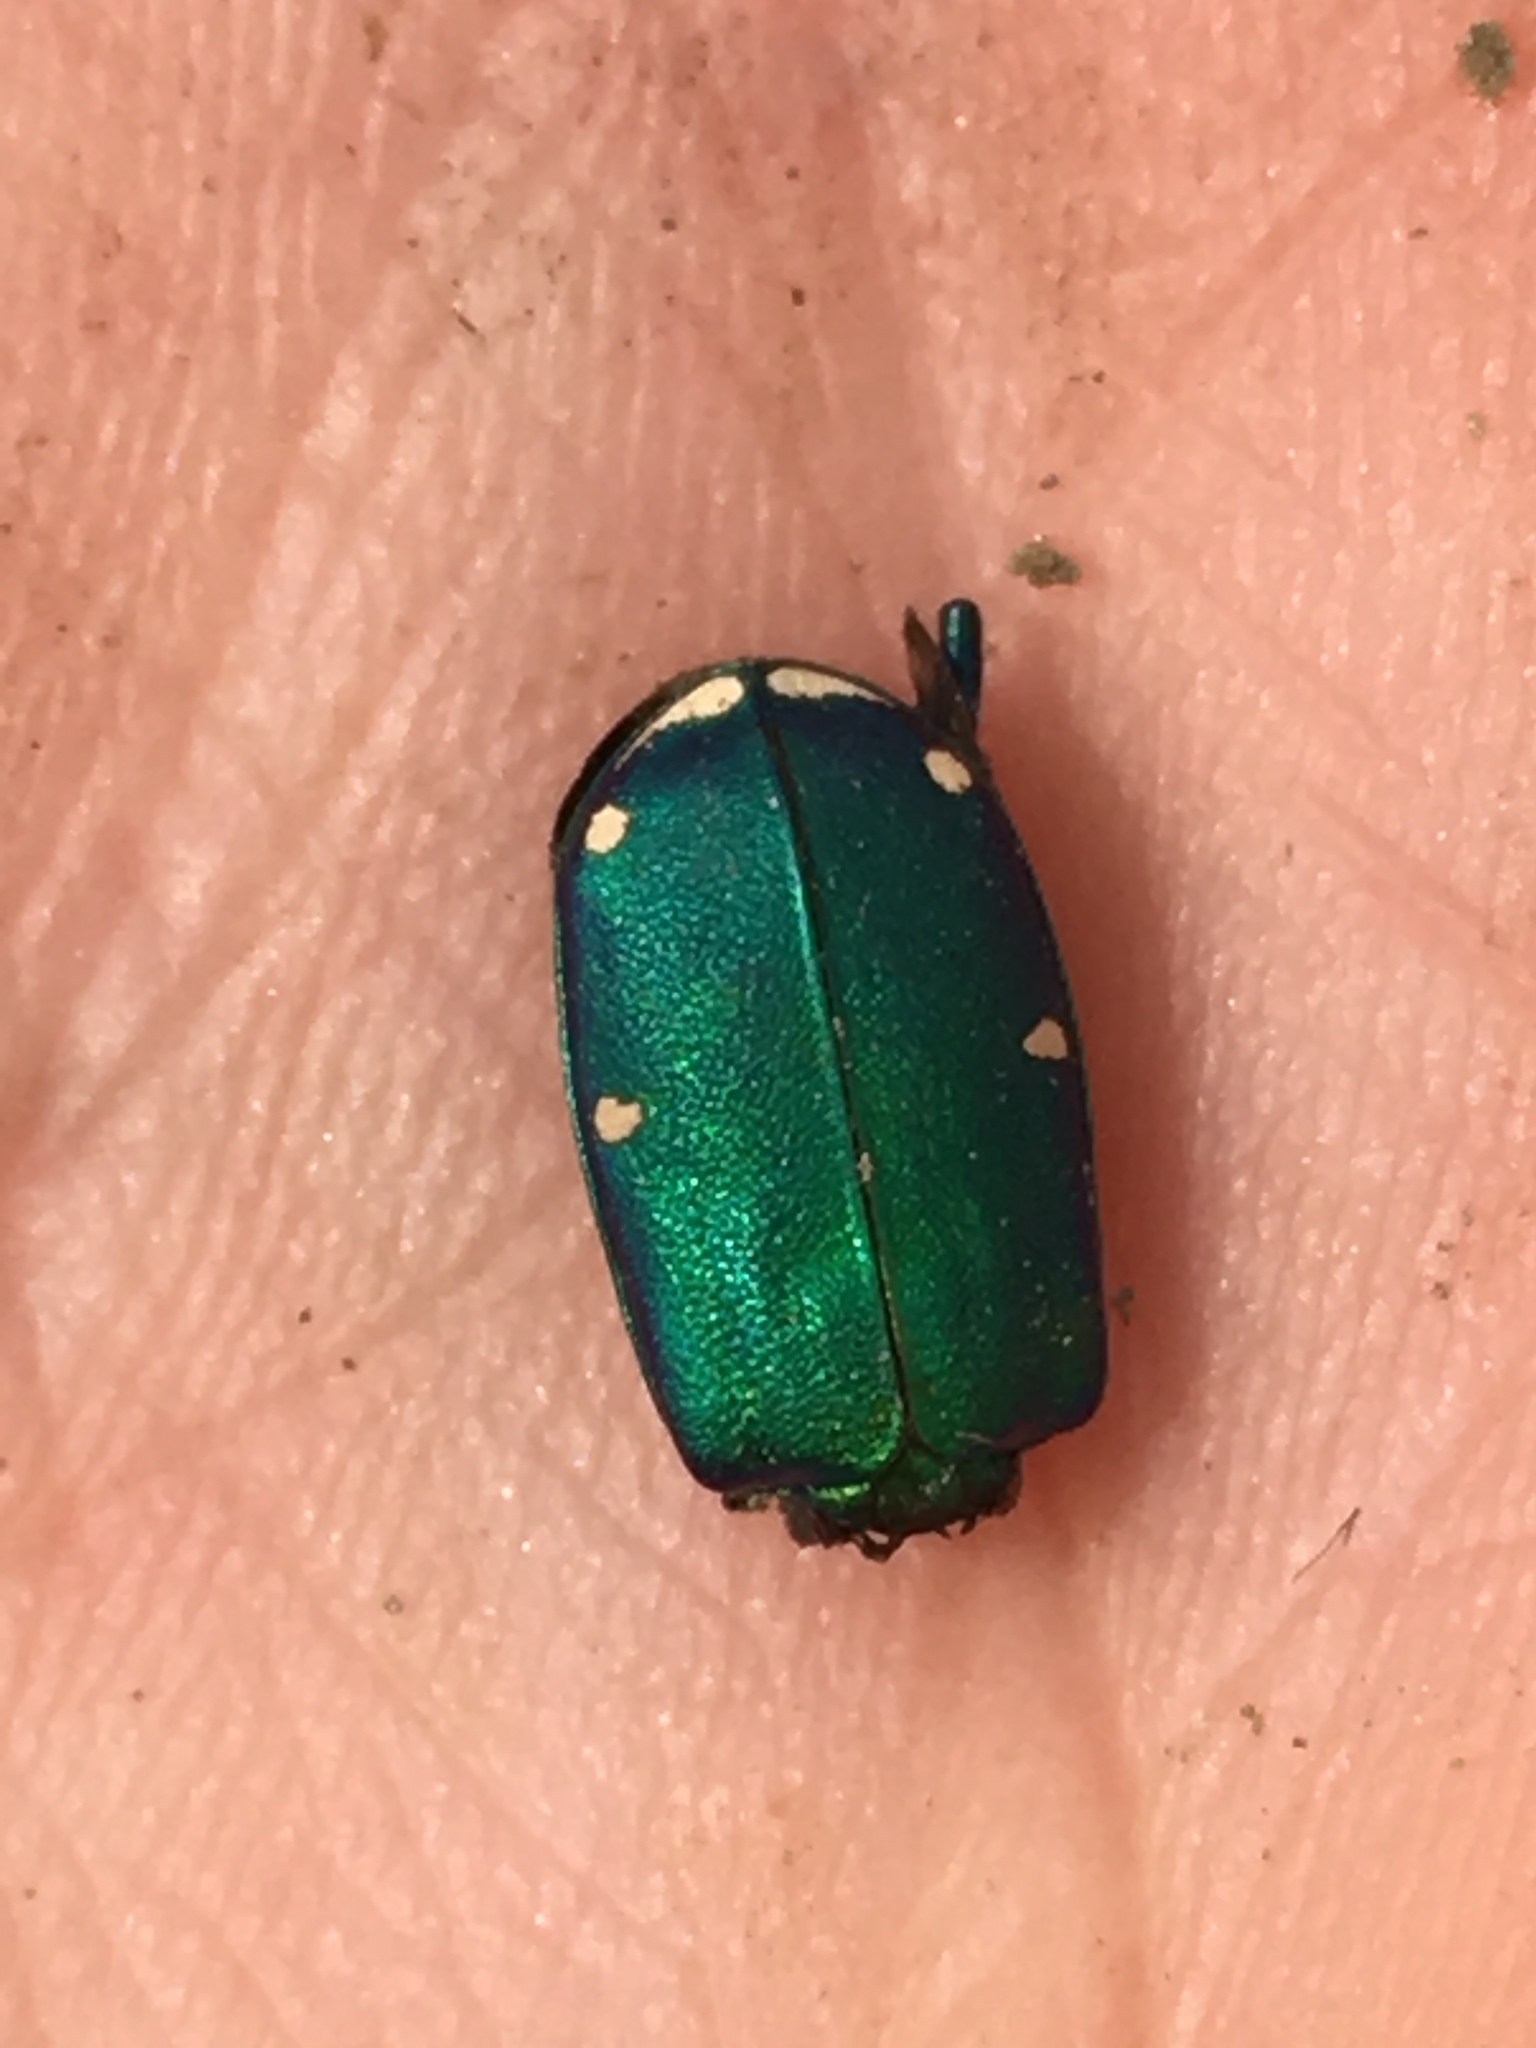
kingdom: Animalia
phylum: Arthropoda
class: Insecta
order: Coleoptera
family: Carabidae
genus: Cicindela
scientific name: Cicindela sexguttata
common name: Six-spotted tiger beetle
